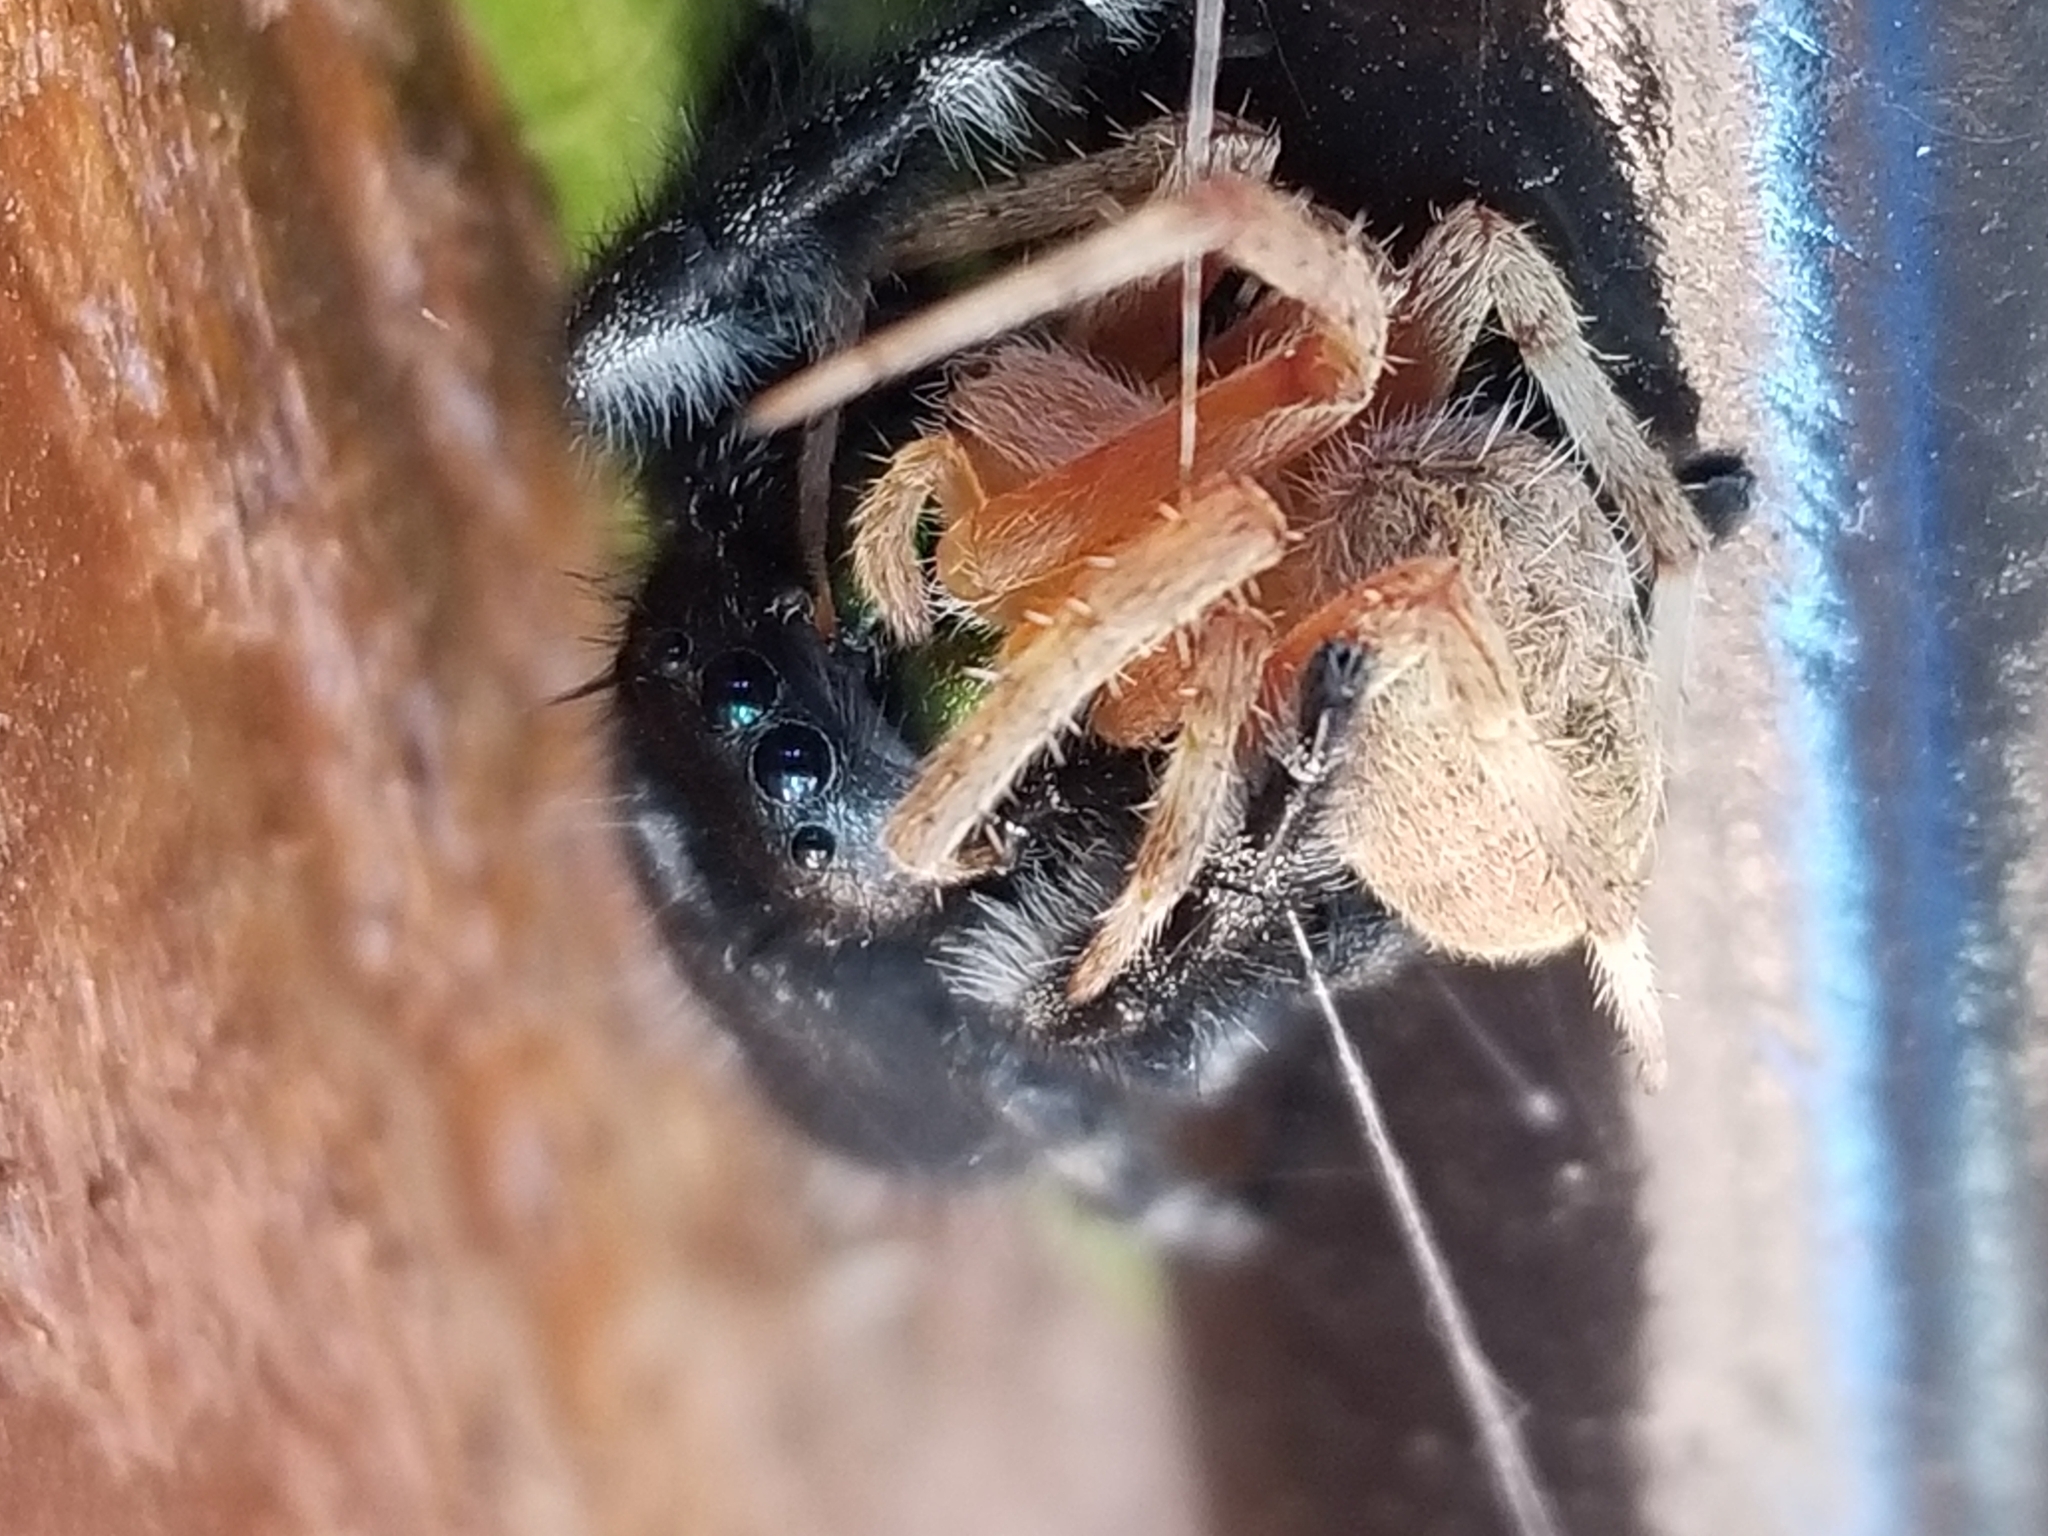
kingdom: Animalia
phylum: Arthropoda
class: Arachnida
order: Araneae
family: Salticidae
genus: Phidippus
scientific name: Phidippus audax
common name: Bold jumper
